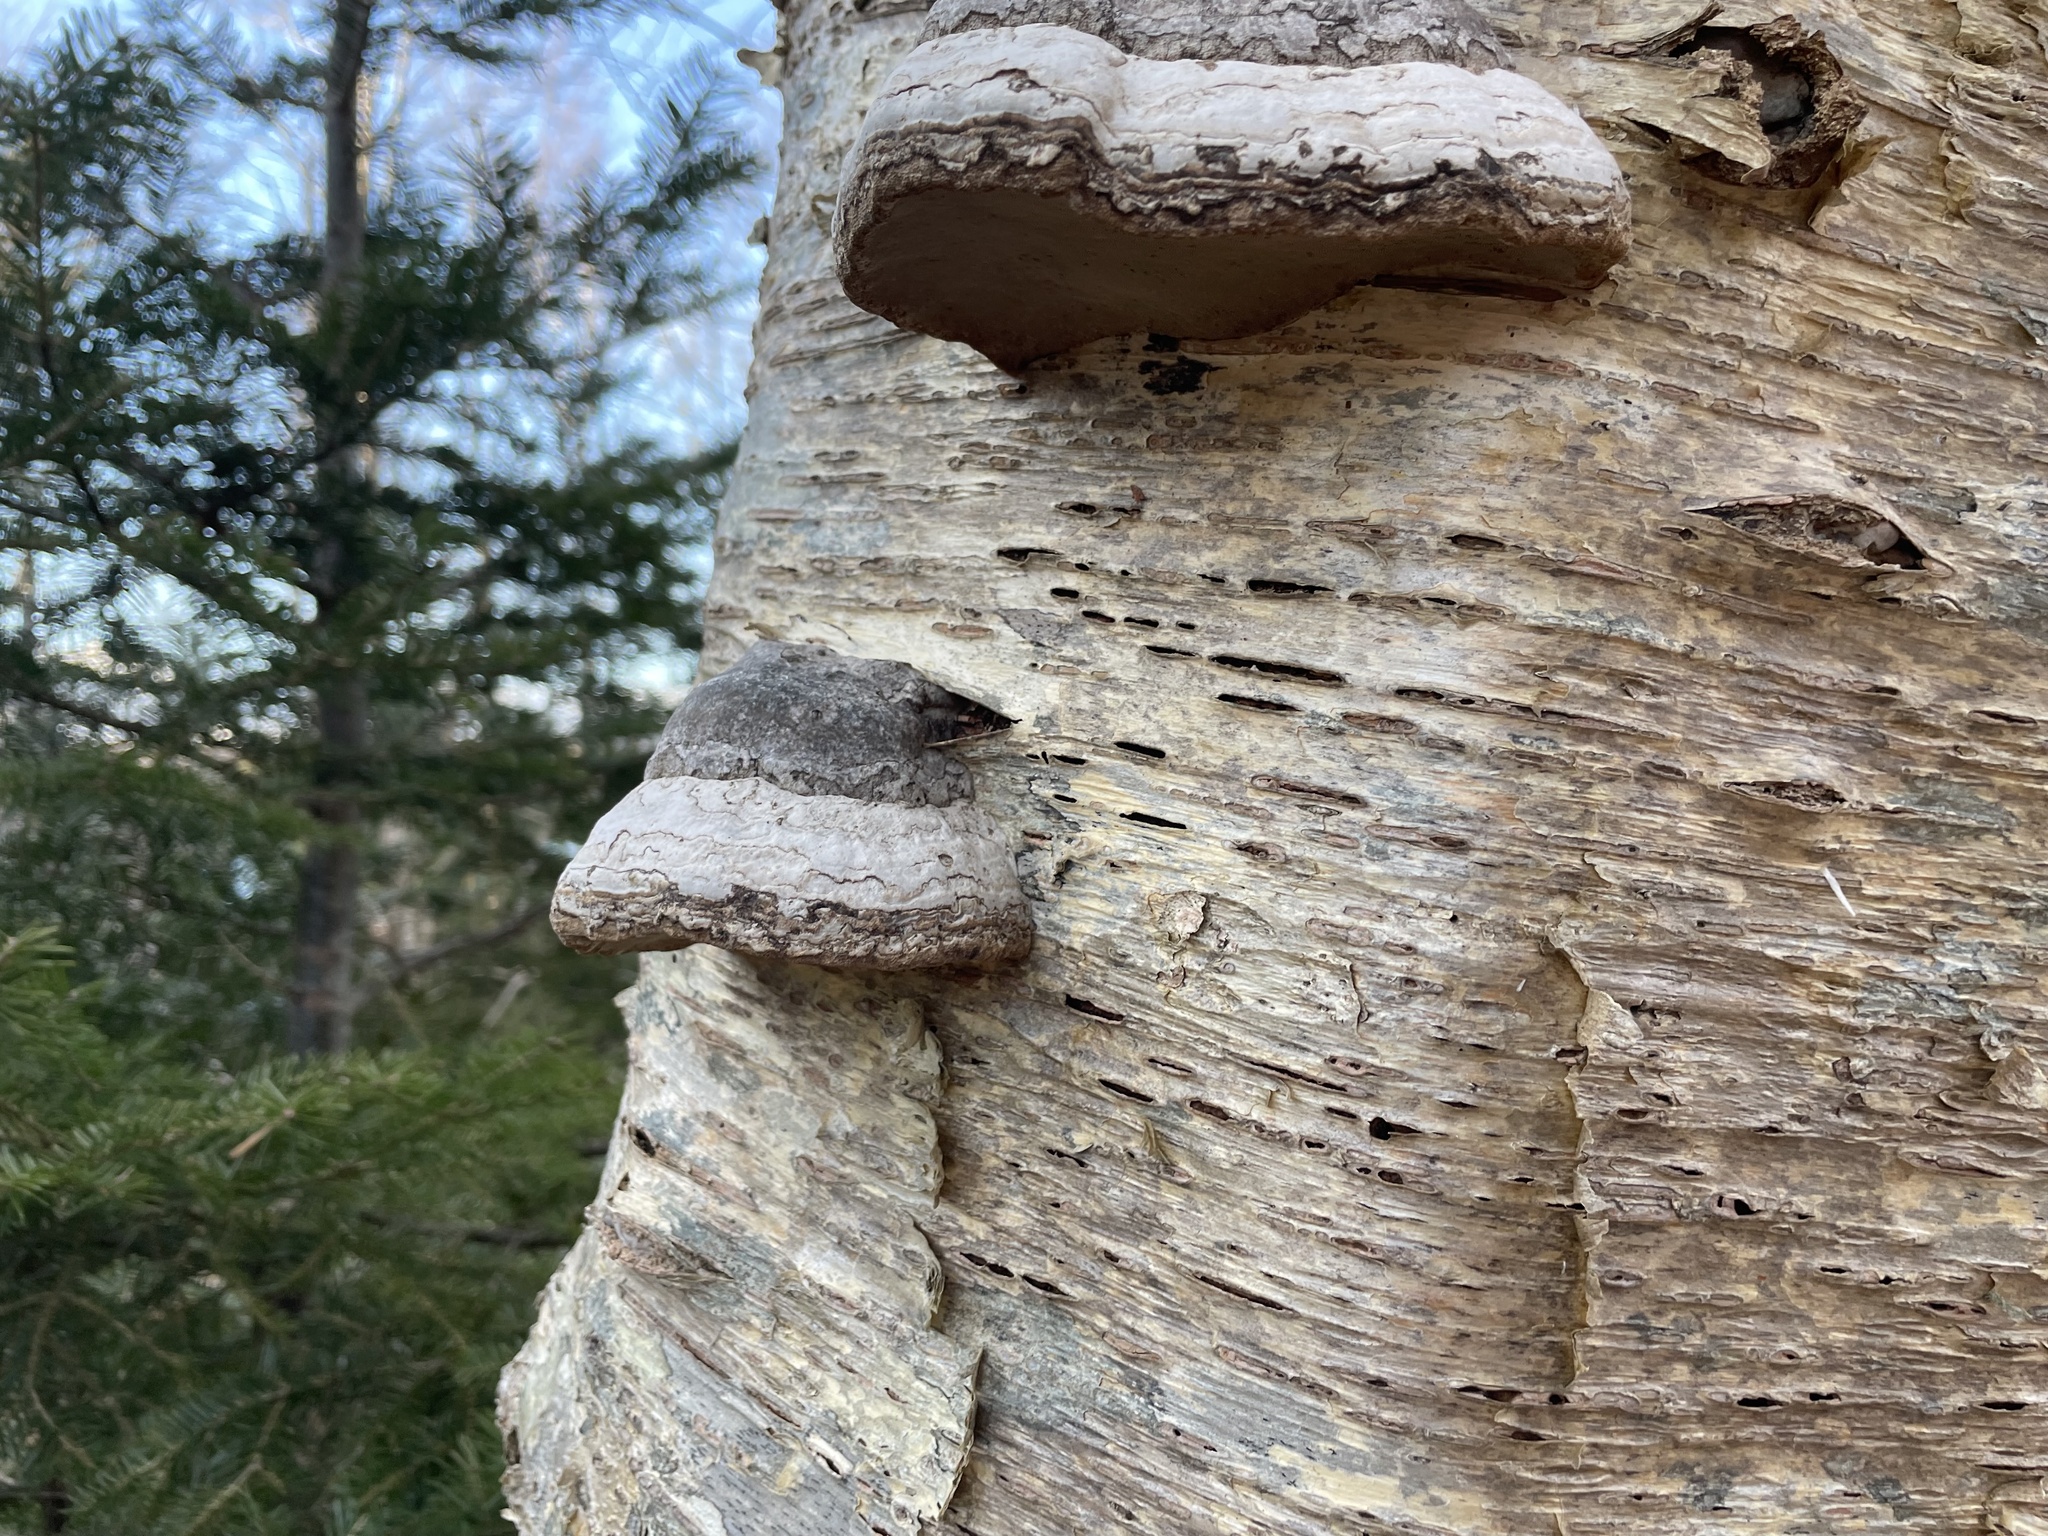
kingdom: Fungi
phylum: Basidiomycota
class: Agaricomycetes
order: Polyporales
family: Polyporaceae
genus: Fomes
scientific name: Fomes fomentarius
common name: Hoof fungus
